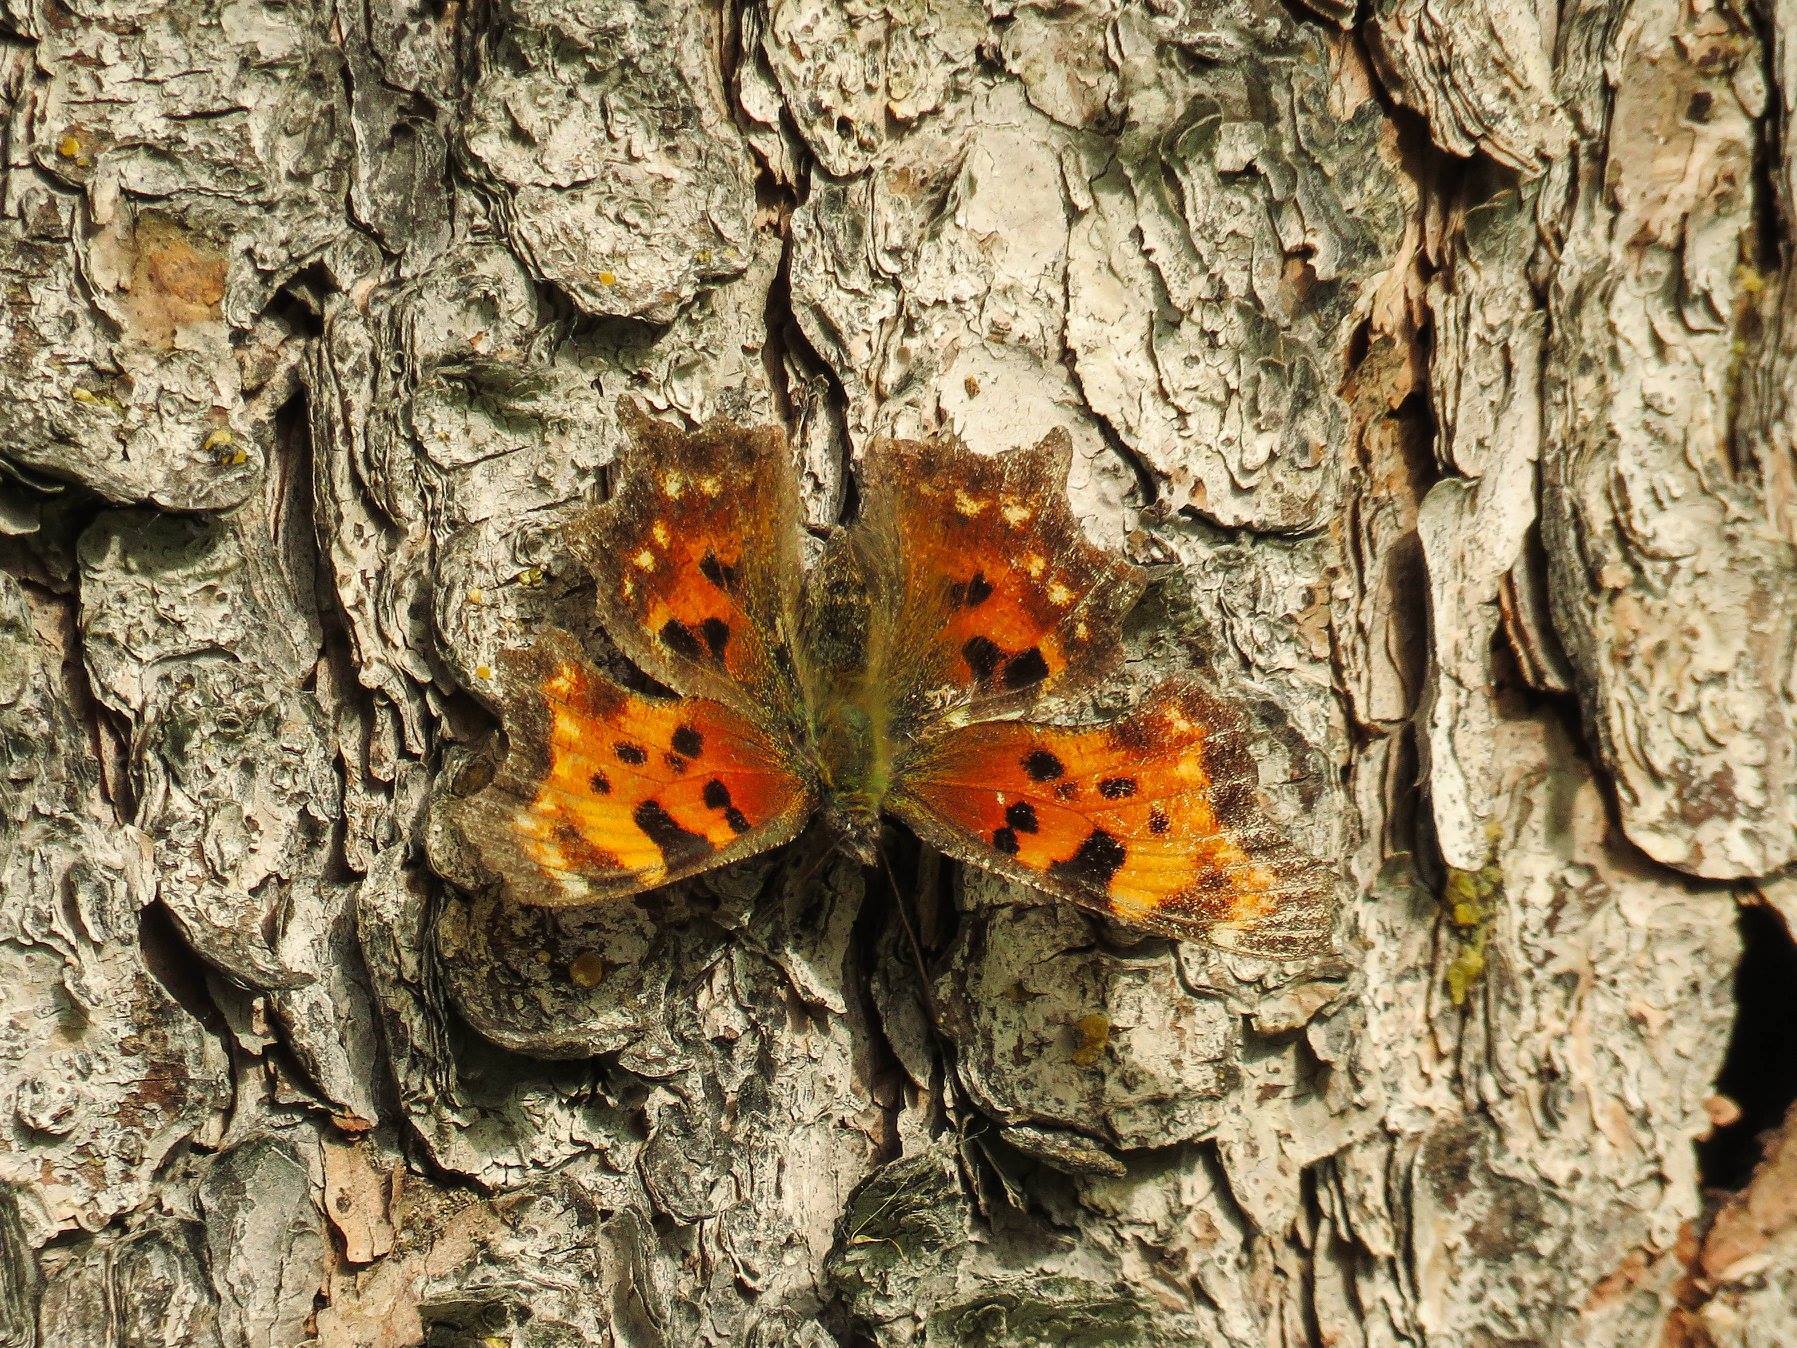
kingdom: Animalia
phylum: Arthropoda
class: Insecta
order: Lepidoptera
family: Nymphalidae
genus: Polygonia
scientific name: Polygonia faunus
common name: Green comma
